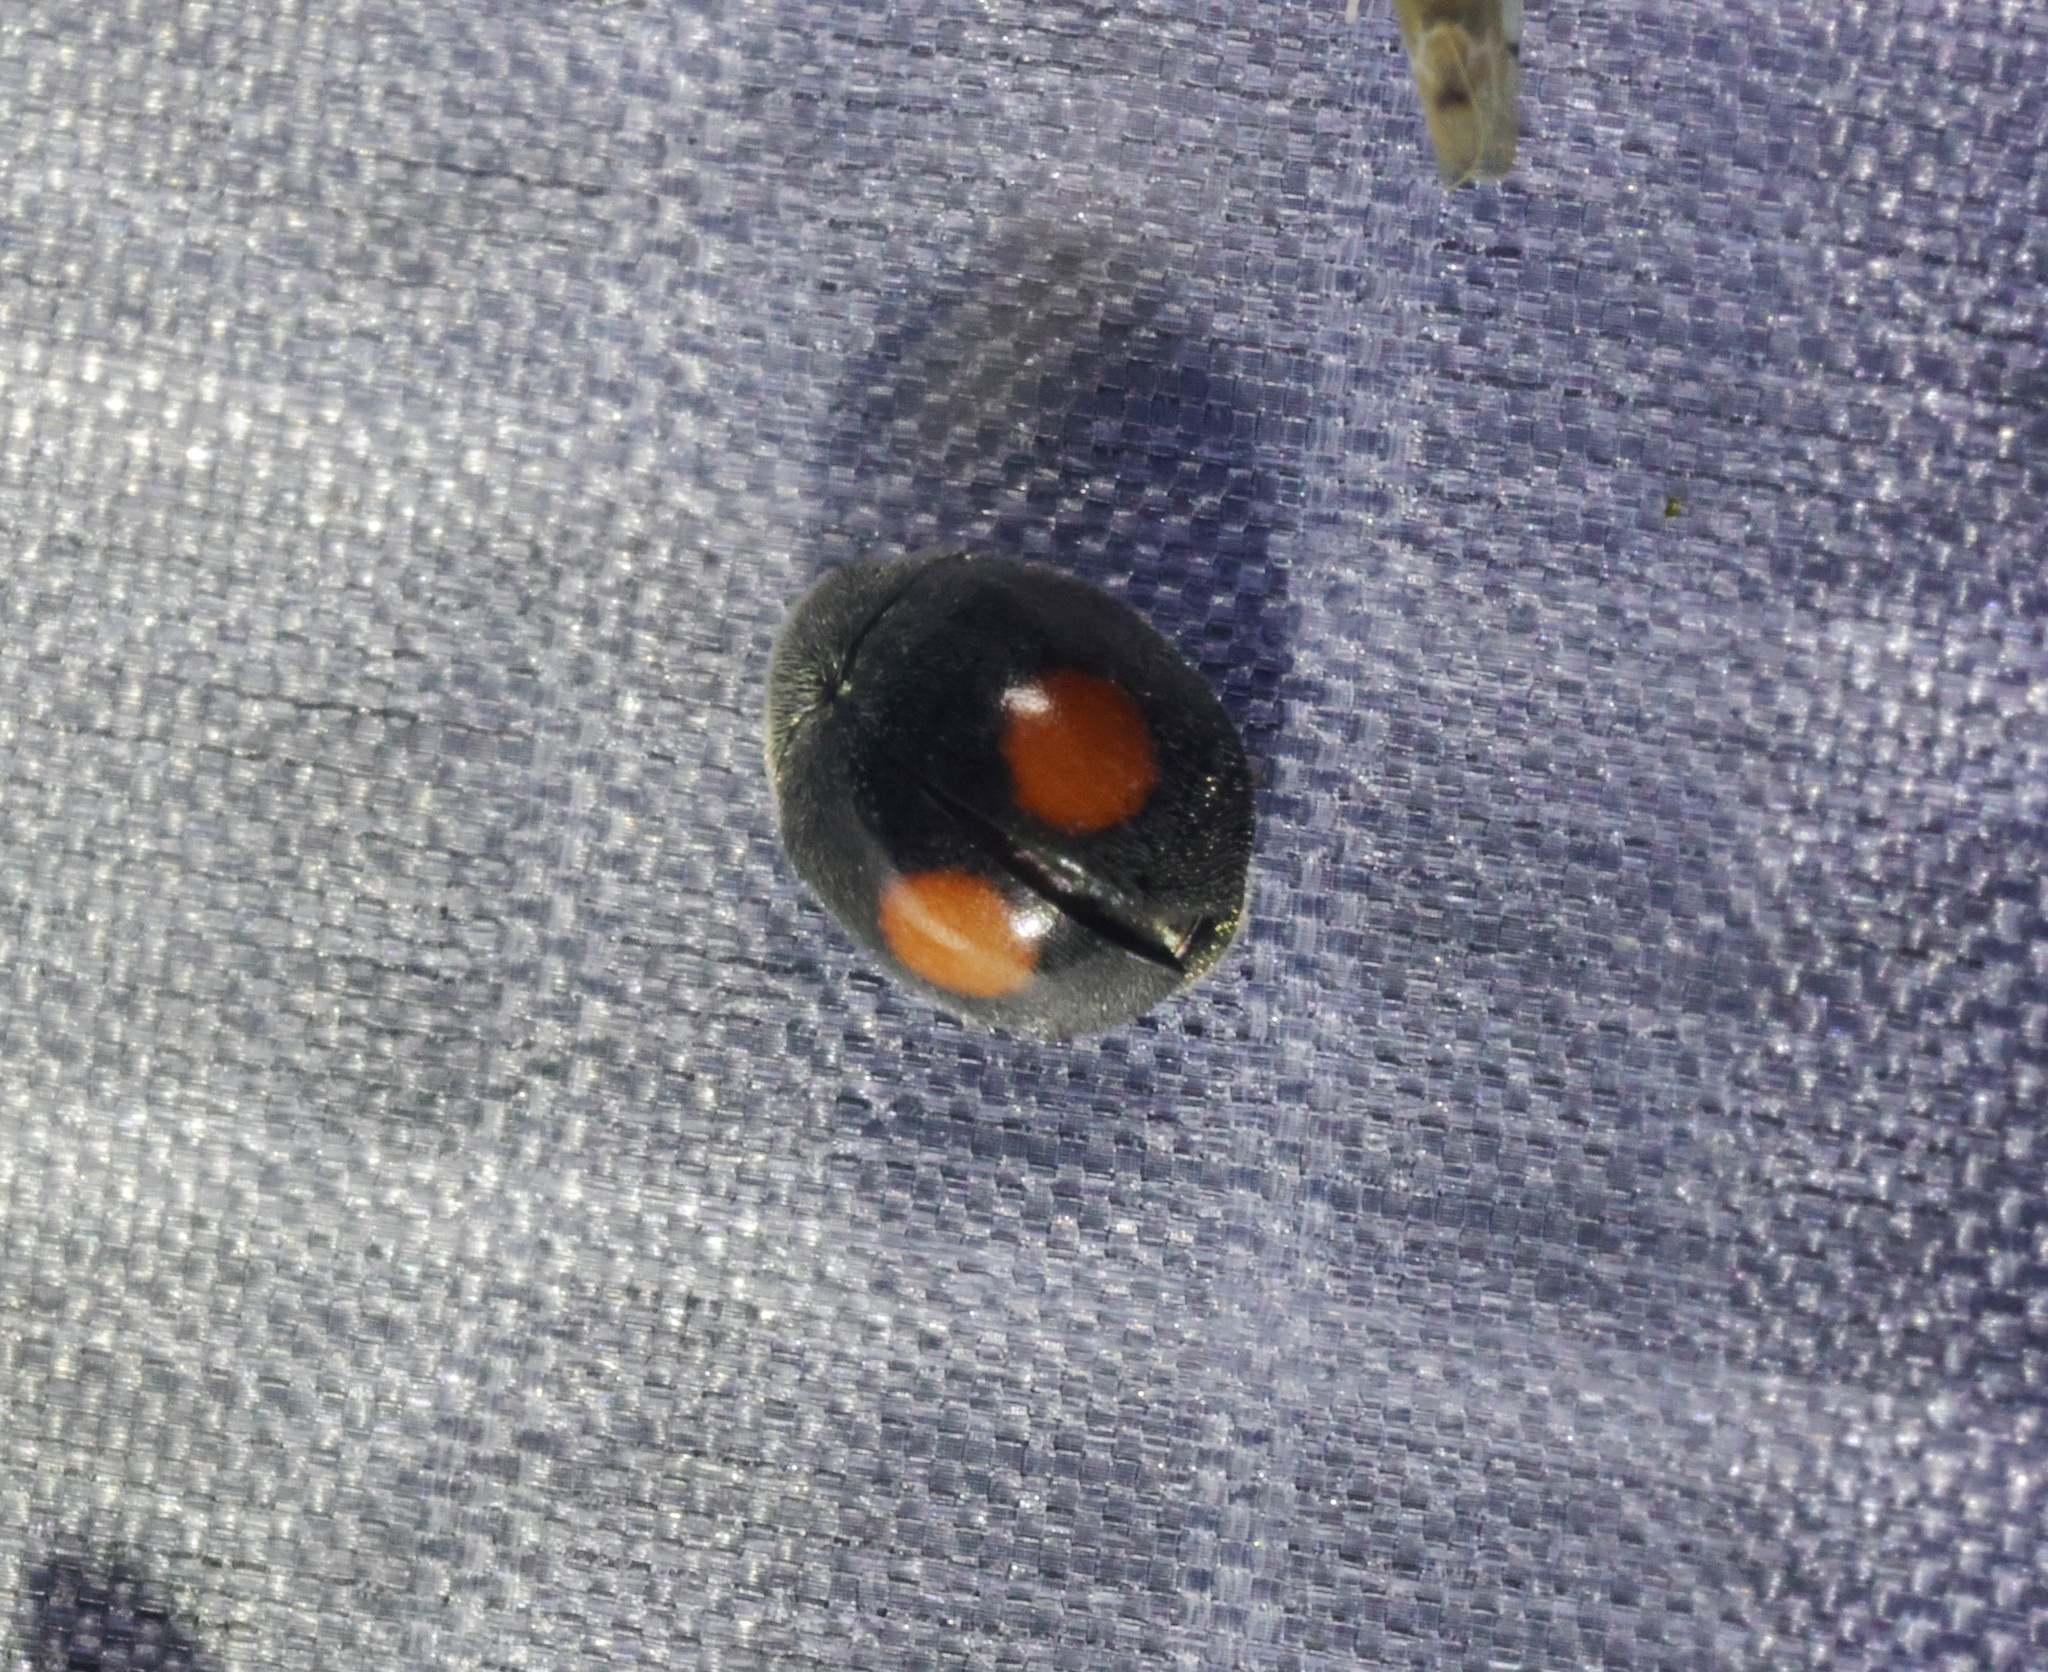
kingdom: Animalia
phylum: Arthropoda
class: Insecta
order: Coleoptera
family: Coccinellidae
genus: Cryptogonus
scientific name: Cryptogonus orbiculus
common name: Lady beetle
